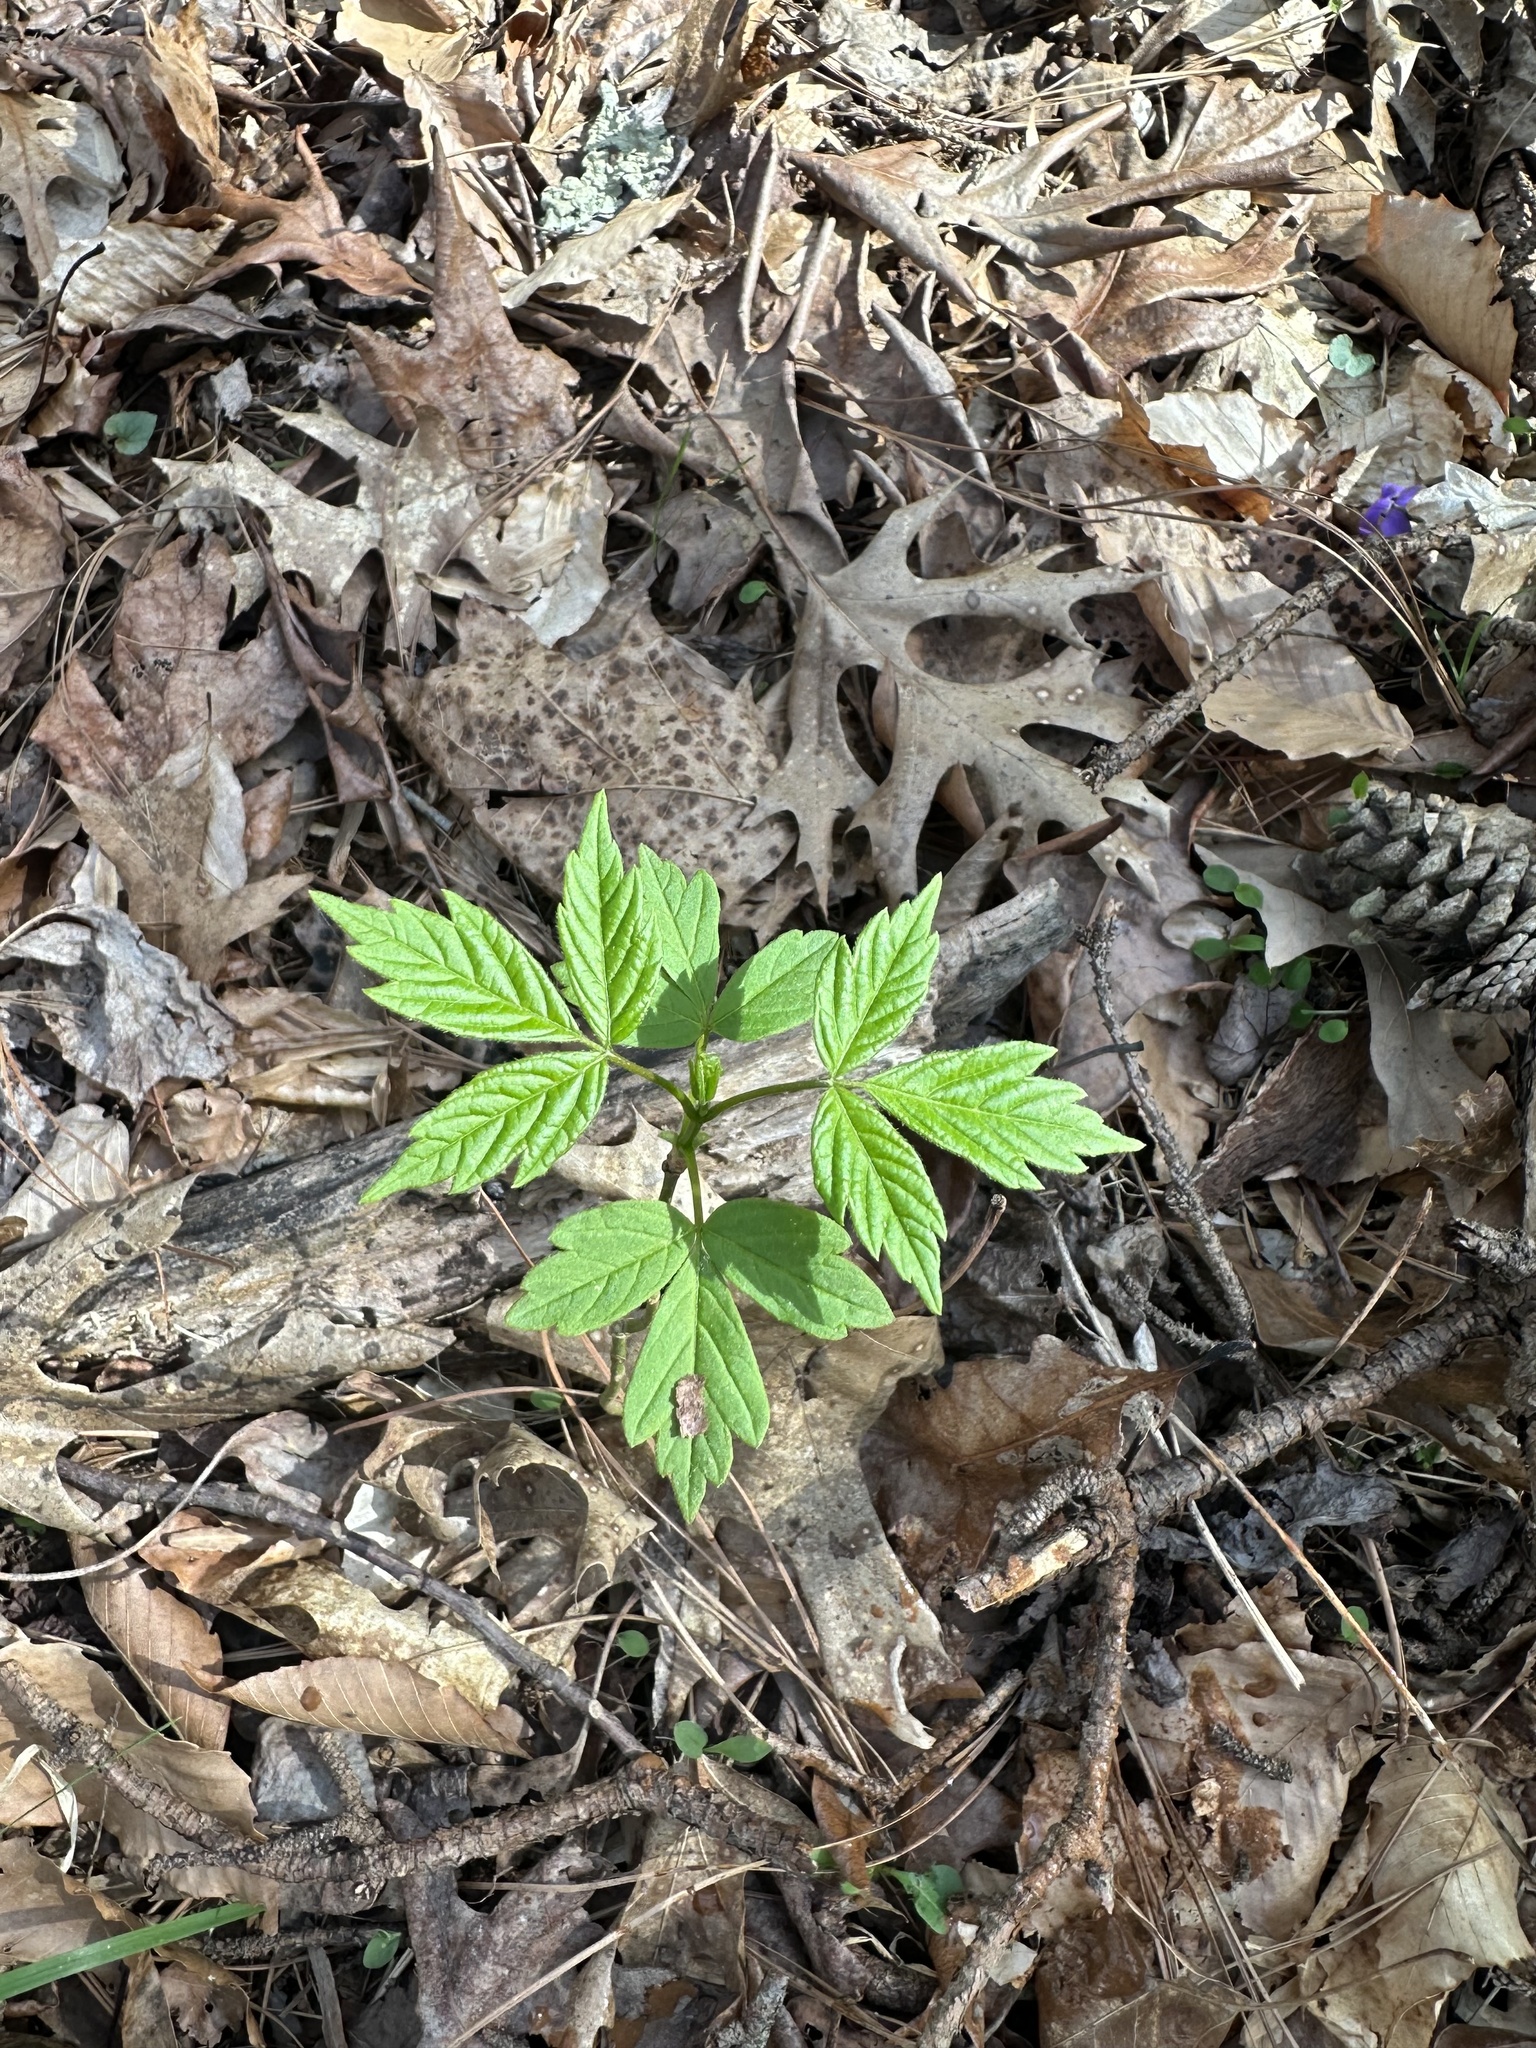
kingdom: Plantae
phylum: Tracheophyta
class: Magnoliopsida
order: Sapindales
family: Sapindaceae
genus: Acer
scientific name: Acer negundo
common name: Ashleaf maple
